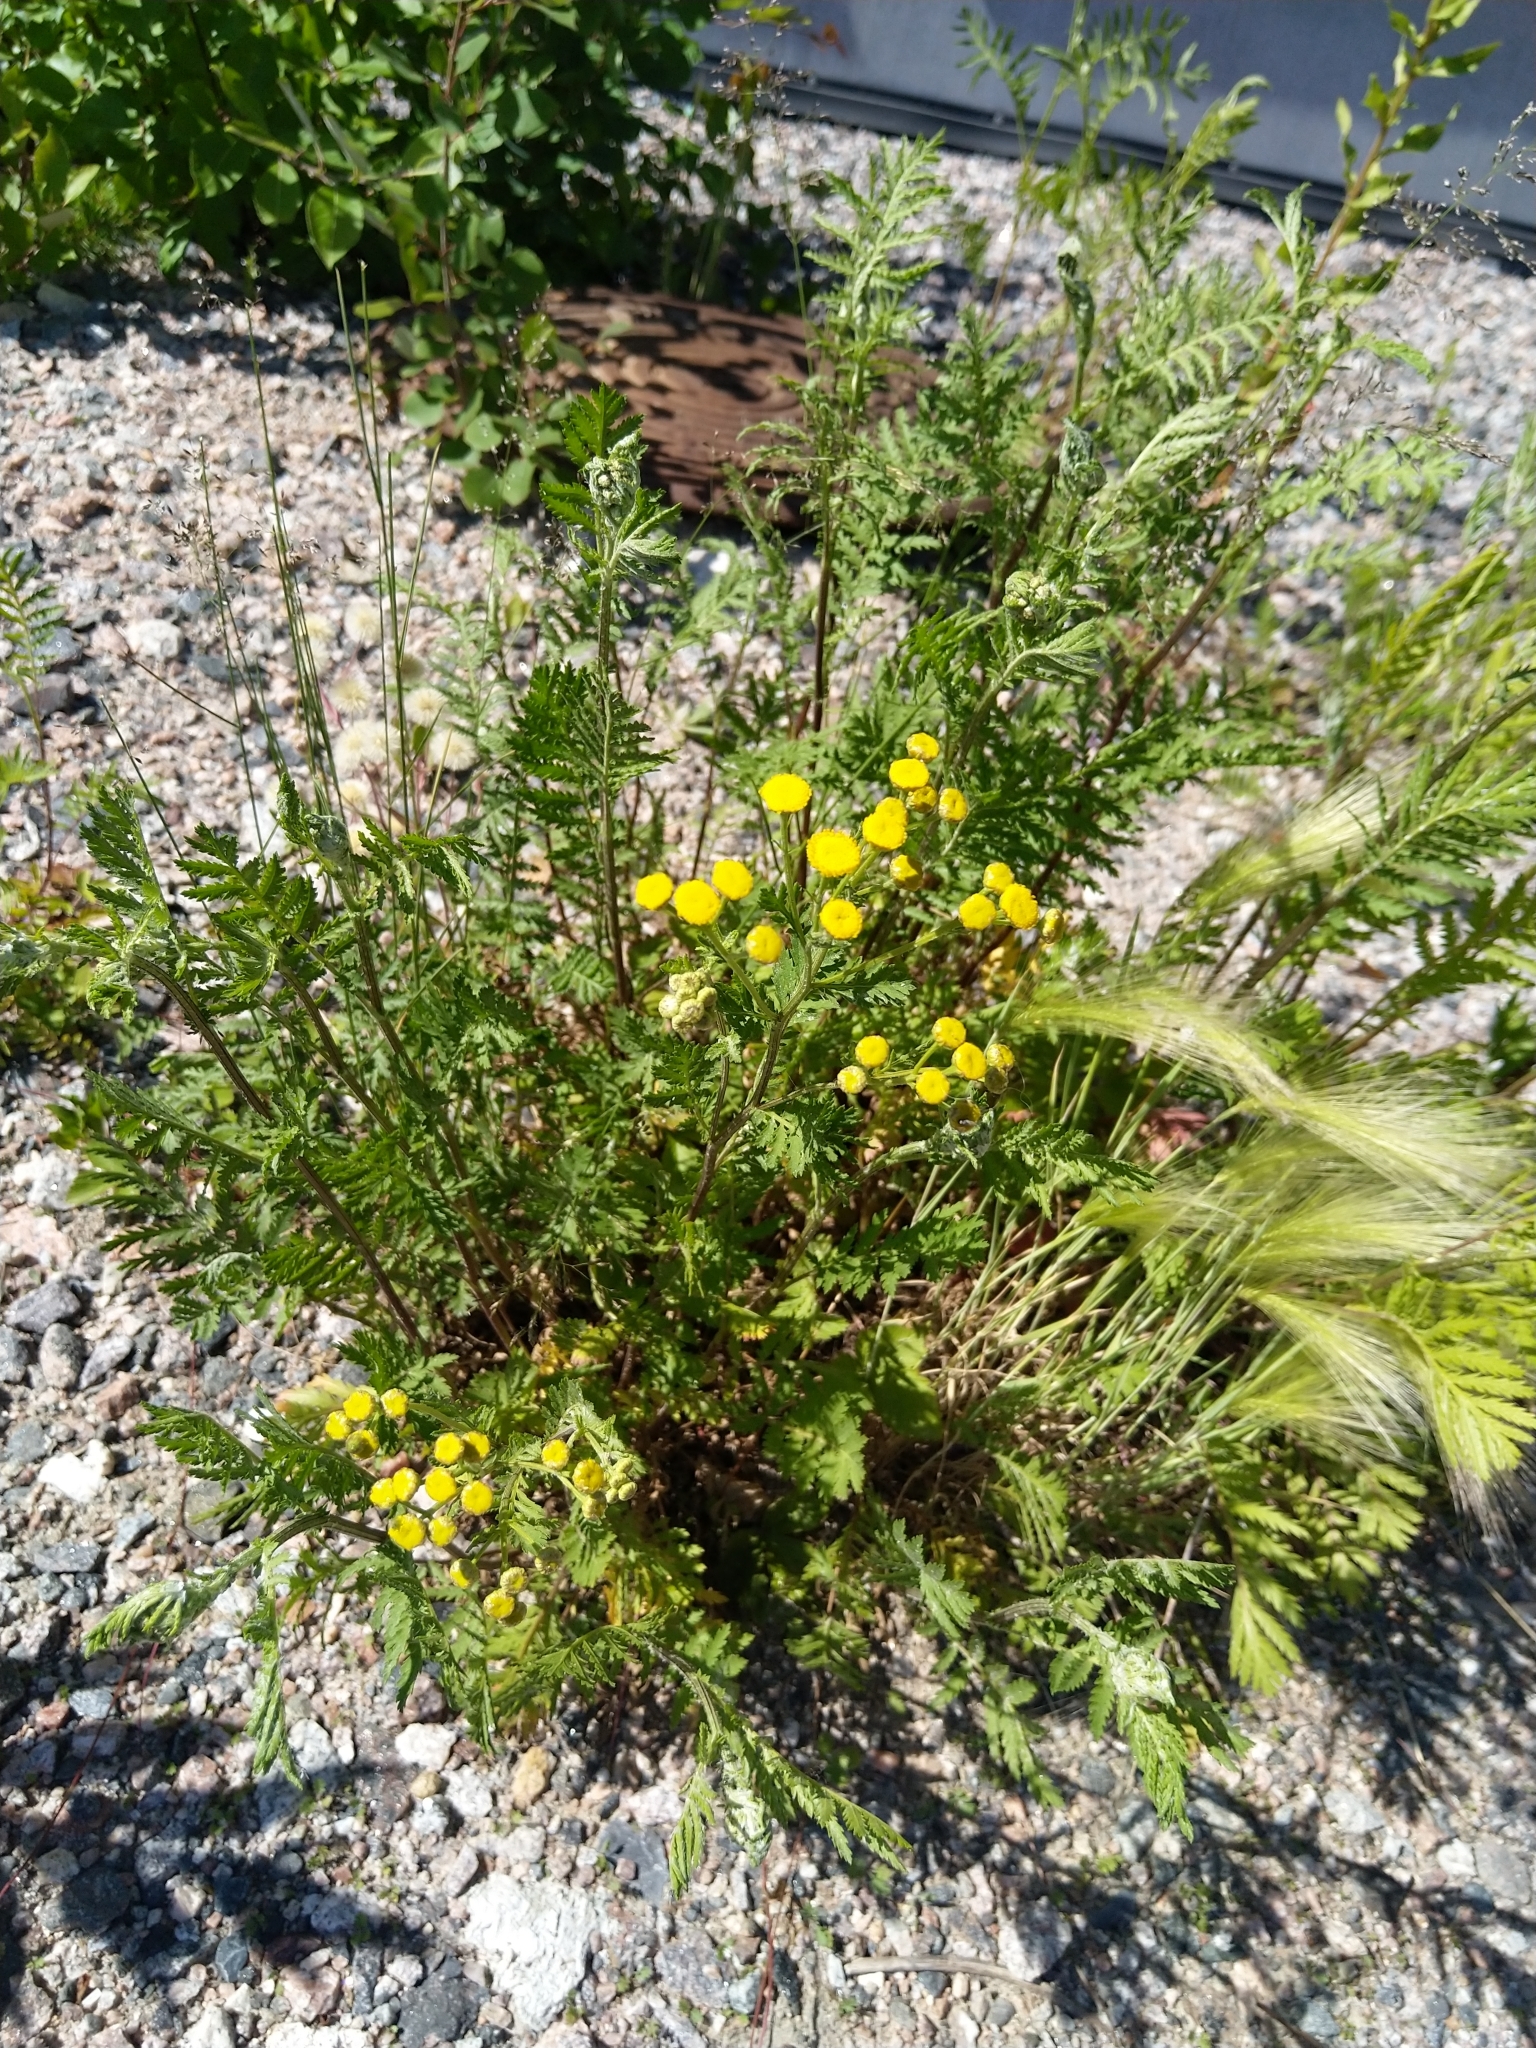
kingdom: Plantae
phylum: Tracheophyta
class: Magnoliopsida
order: Asterales
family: Asteraceae
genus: Tanacetum
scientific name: Tanacetum vulgare
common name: Common tansy
